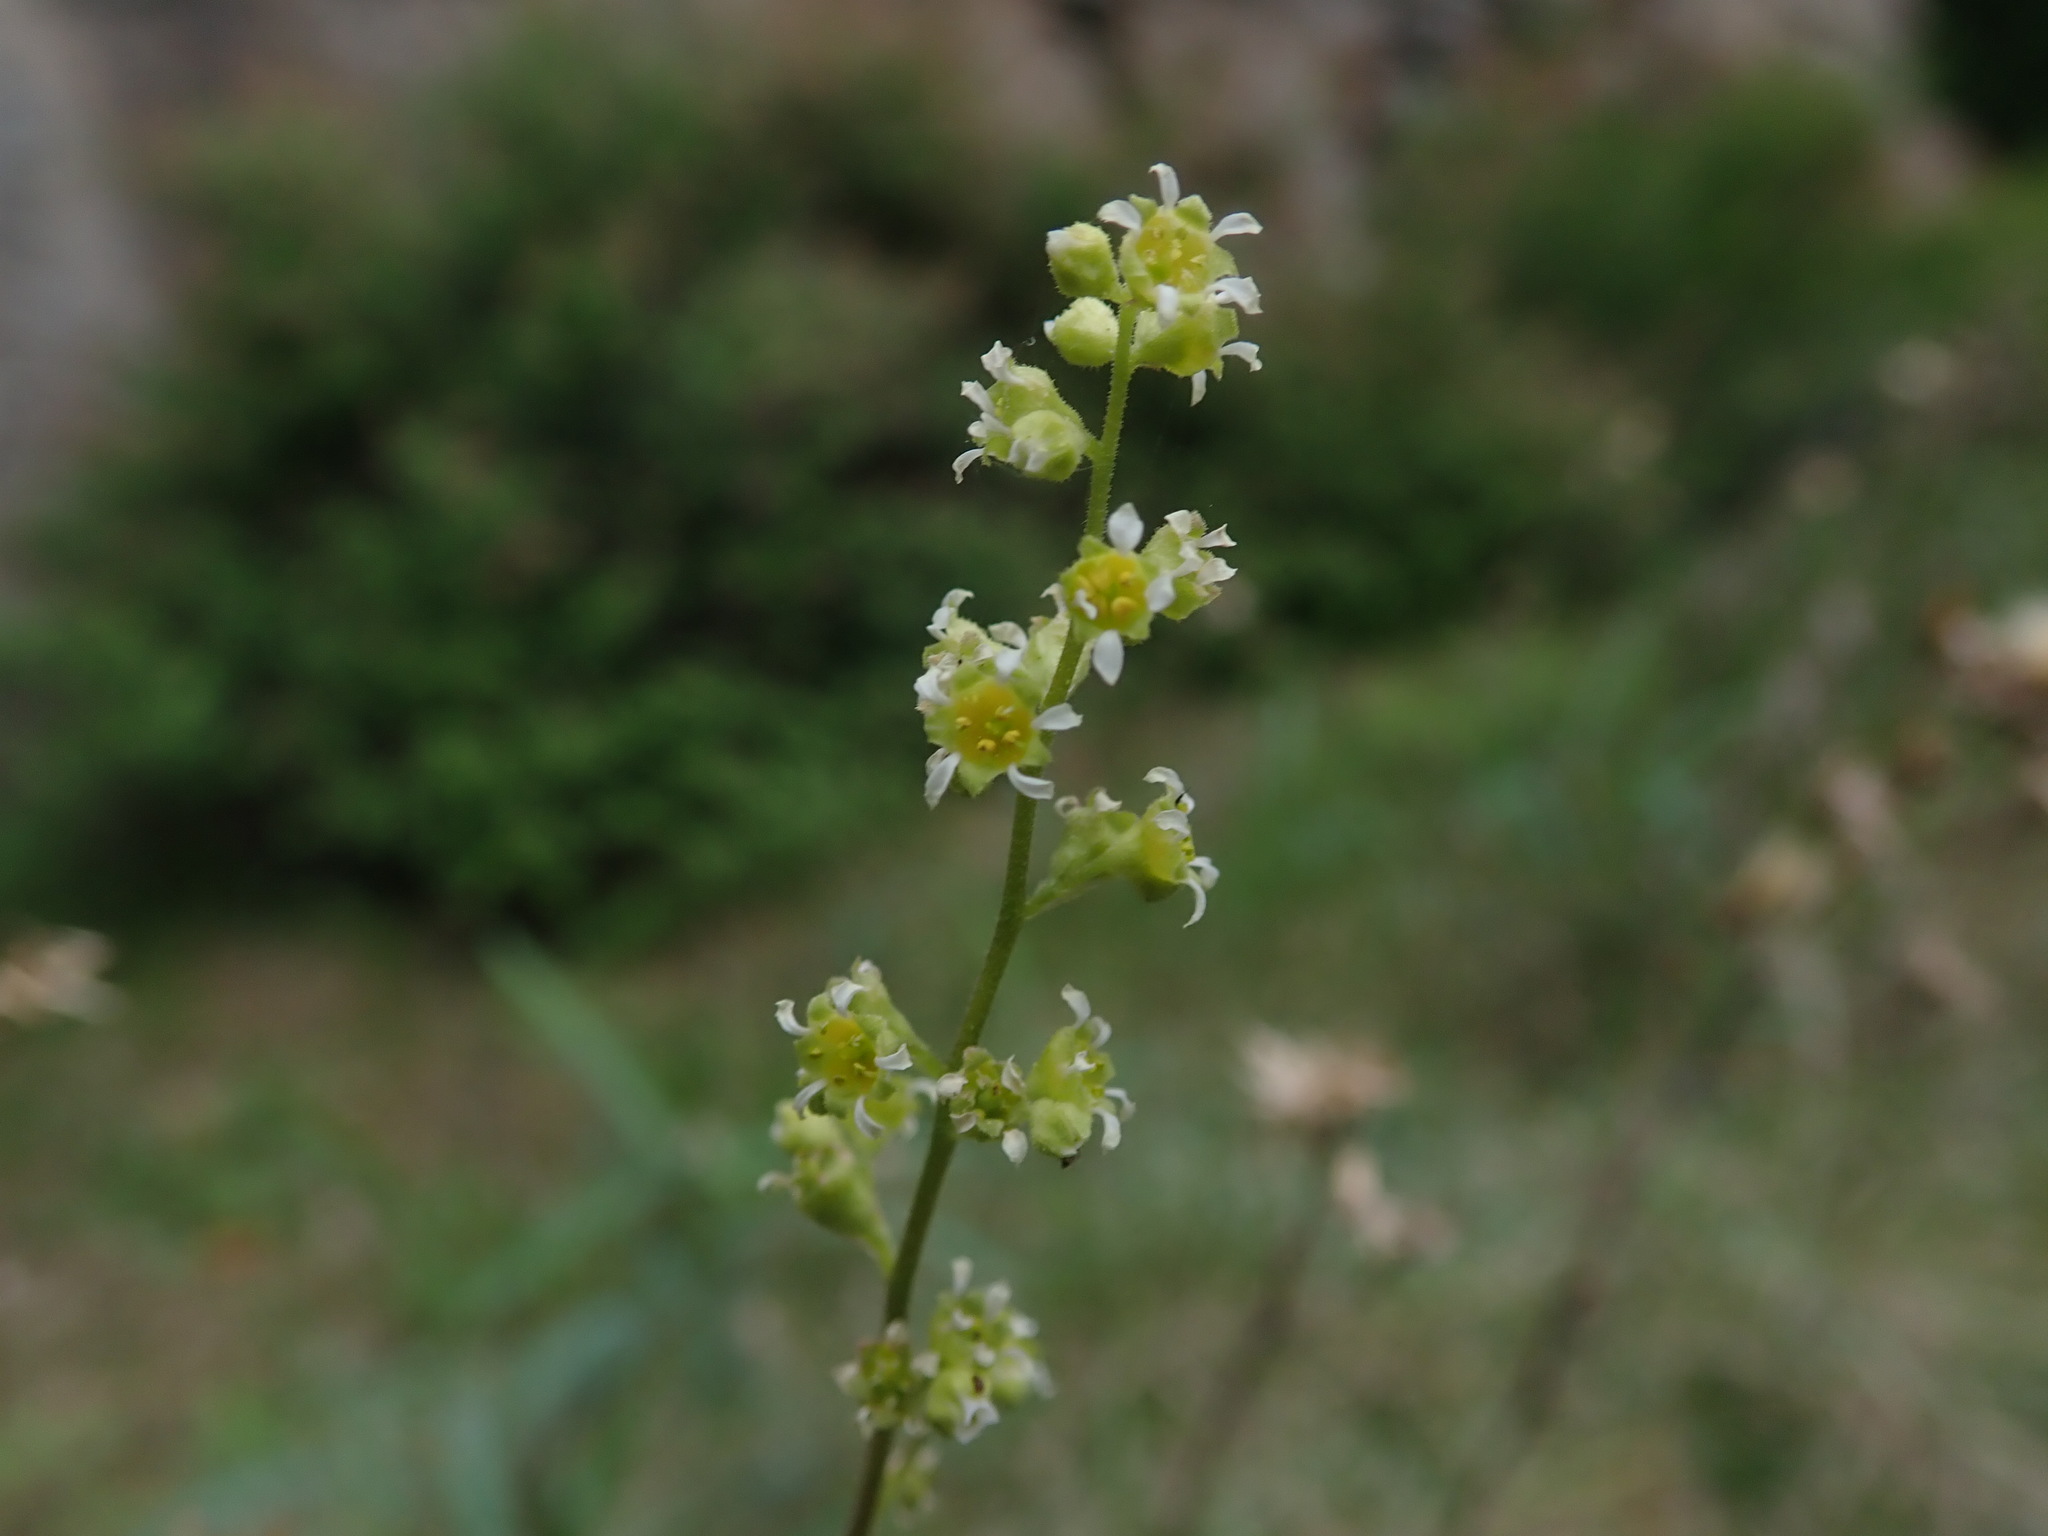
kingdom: Plantae
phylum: Tracheophyta
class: Magnoliopsida
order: Saxifragales
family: Saxifragaceae
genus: Heuchera
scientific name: Heuchera parvifolia
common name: Common alumroot
